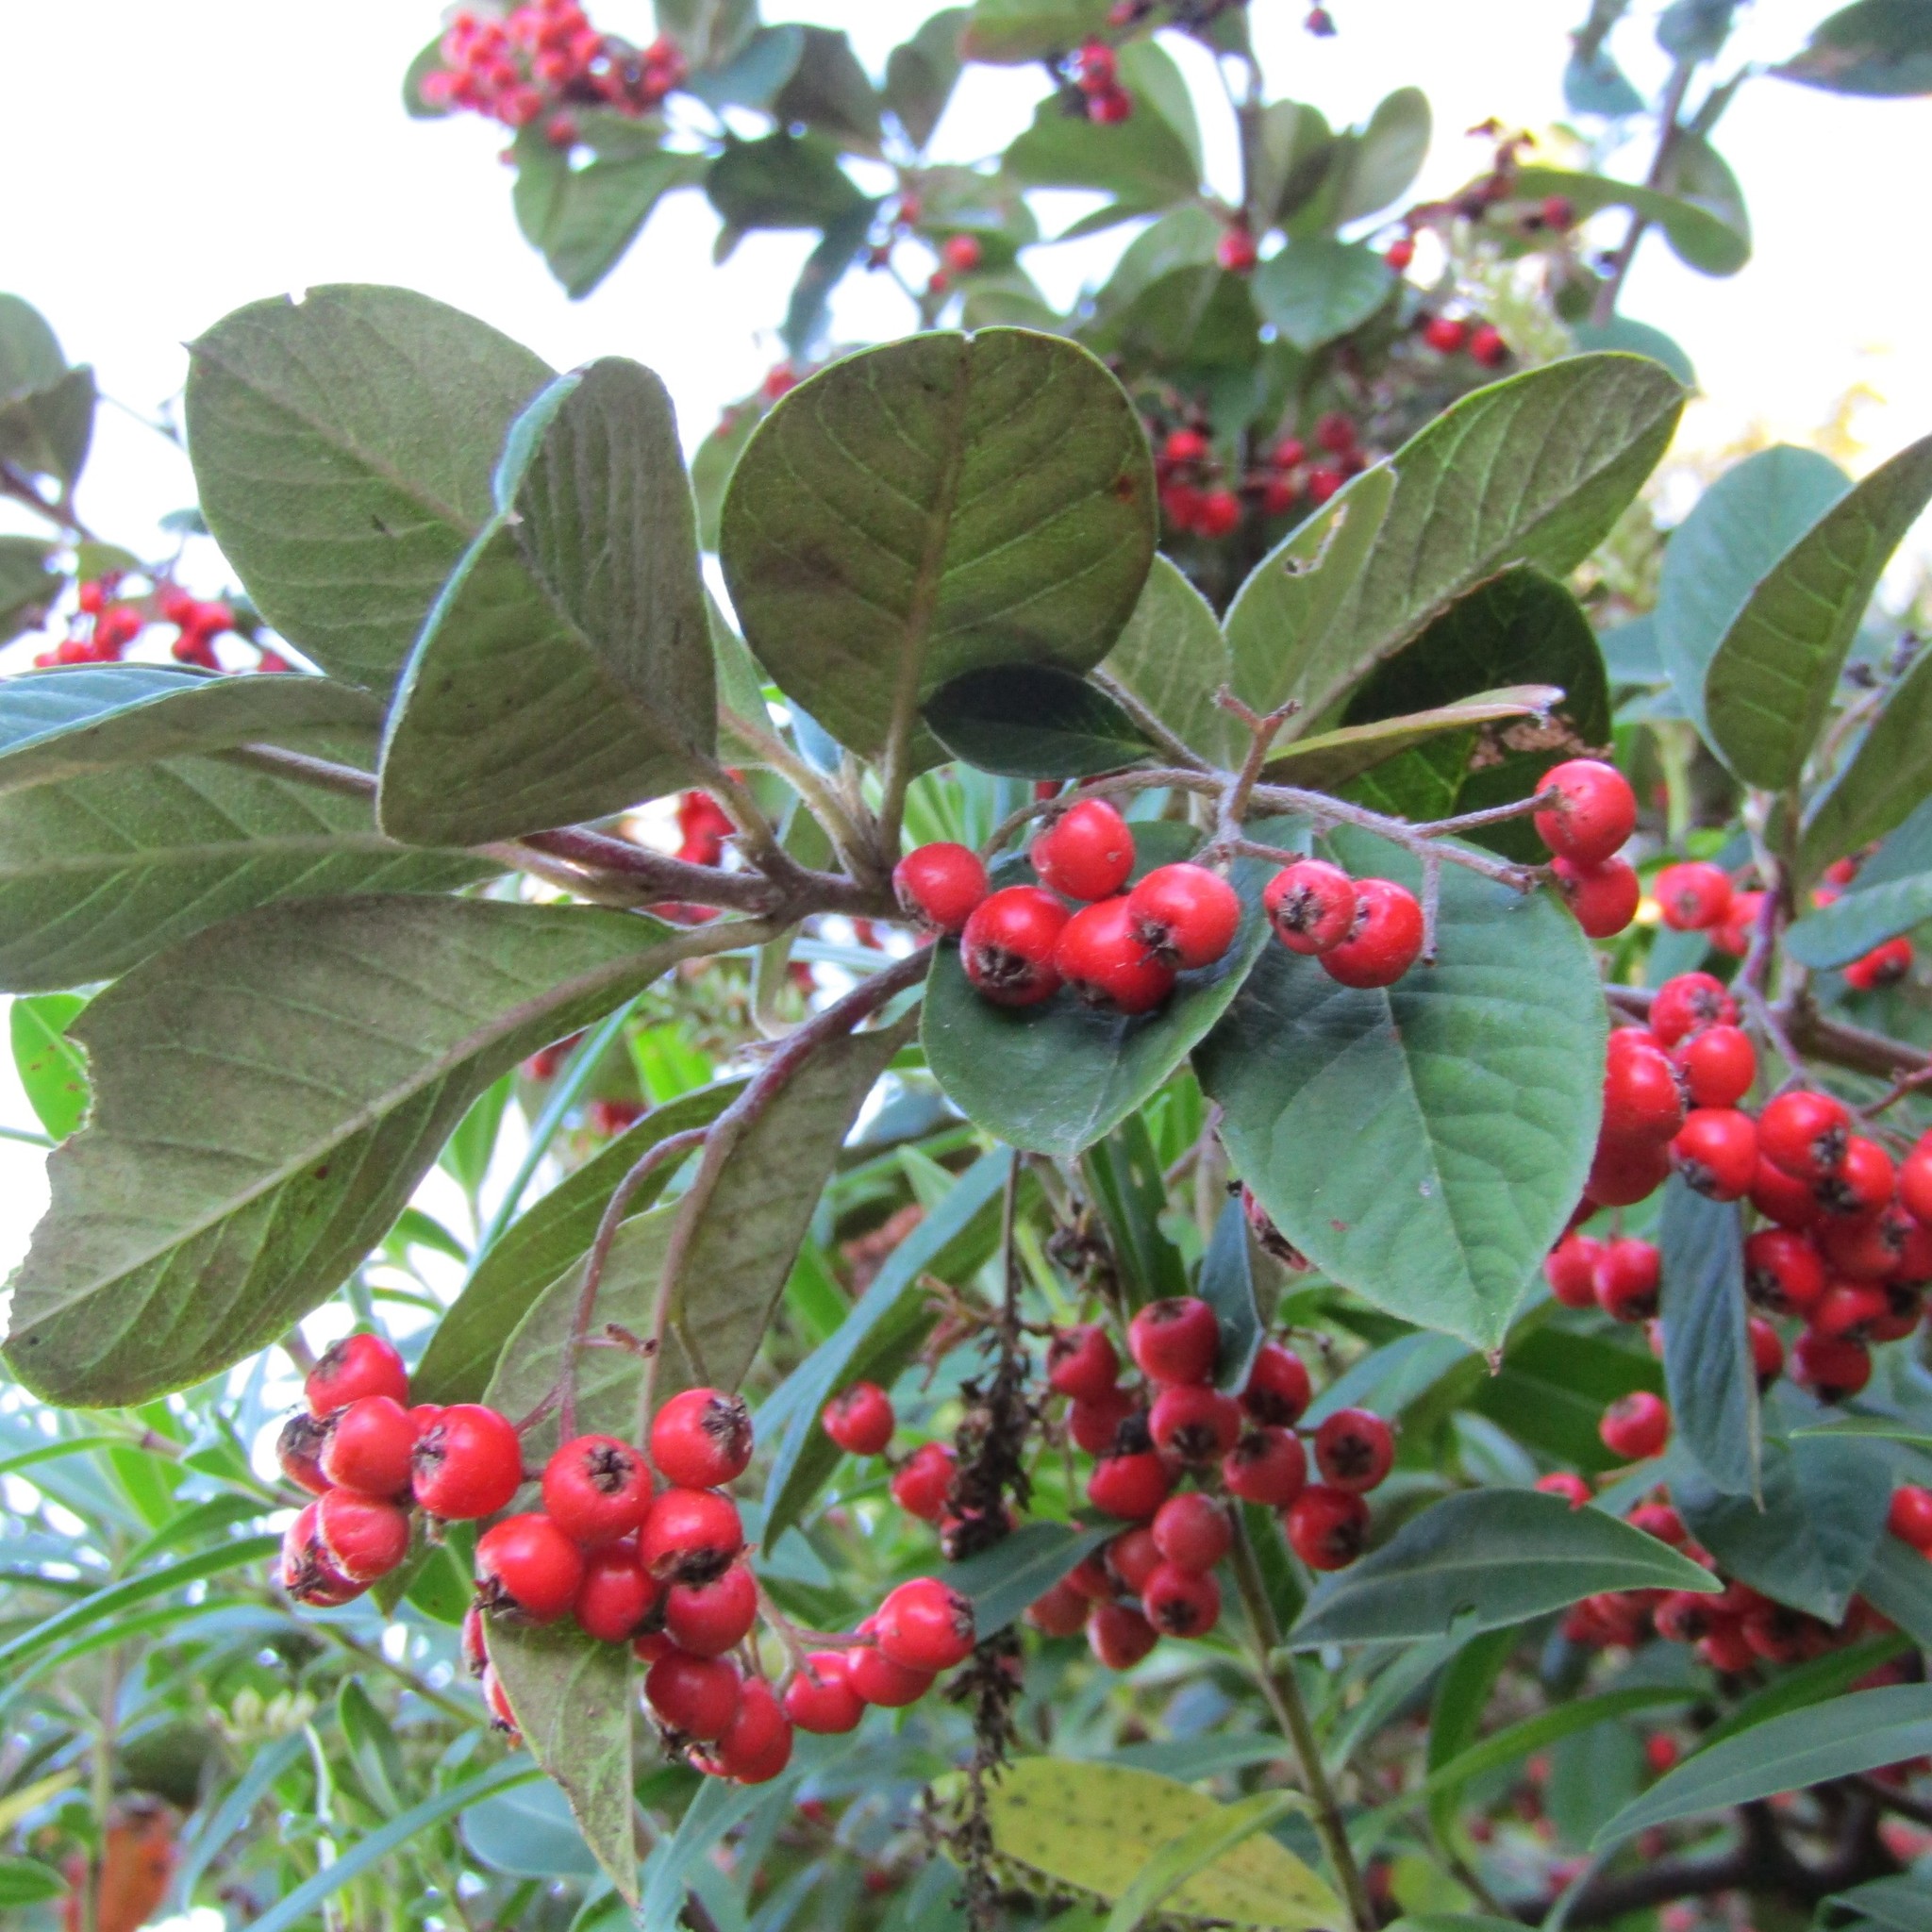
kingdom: Plantae
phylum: Tracheophyta
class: Magnoliopsida
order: Rosales
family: Rosaceae
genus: Cotoneaster
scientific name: Cotoneaster coriaceus
